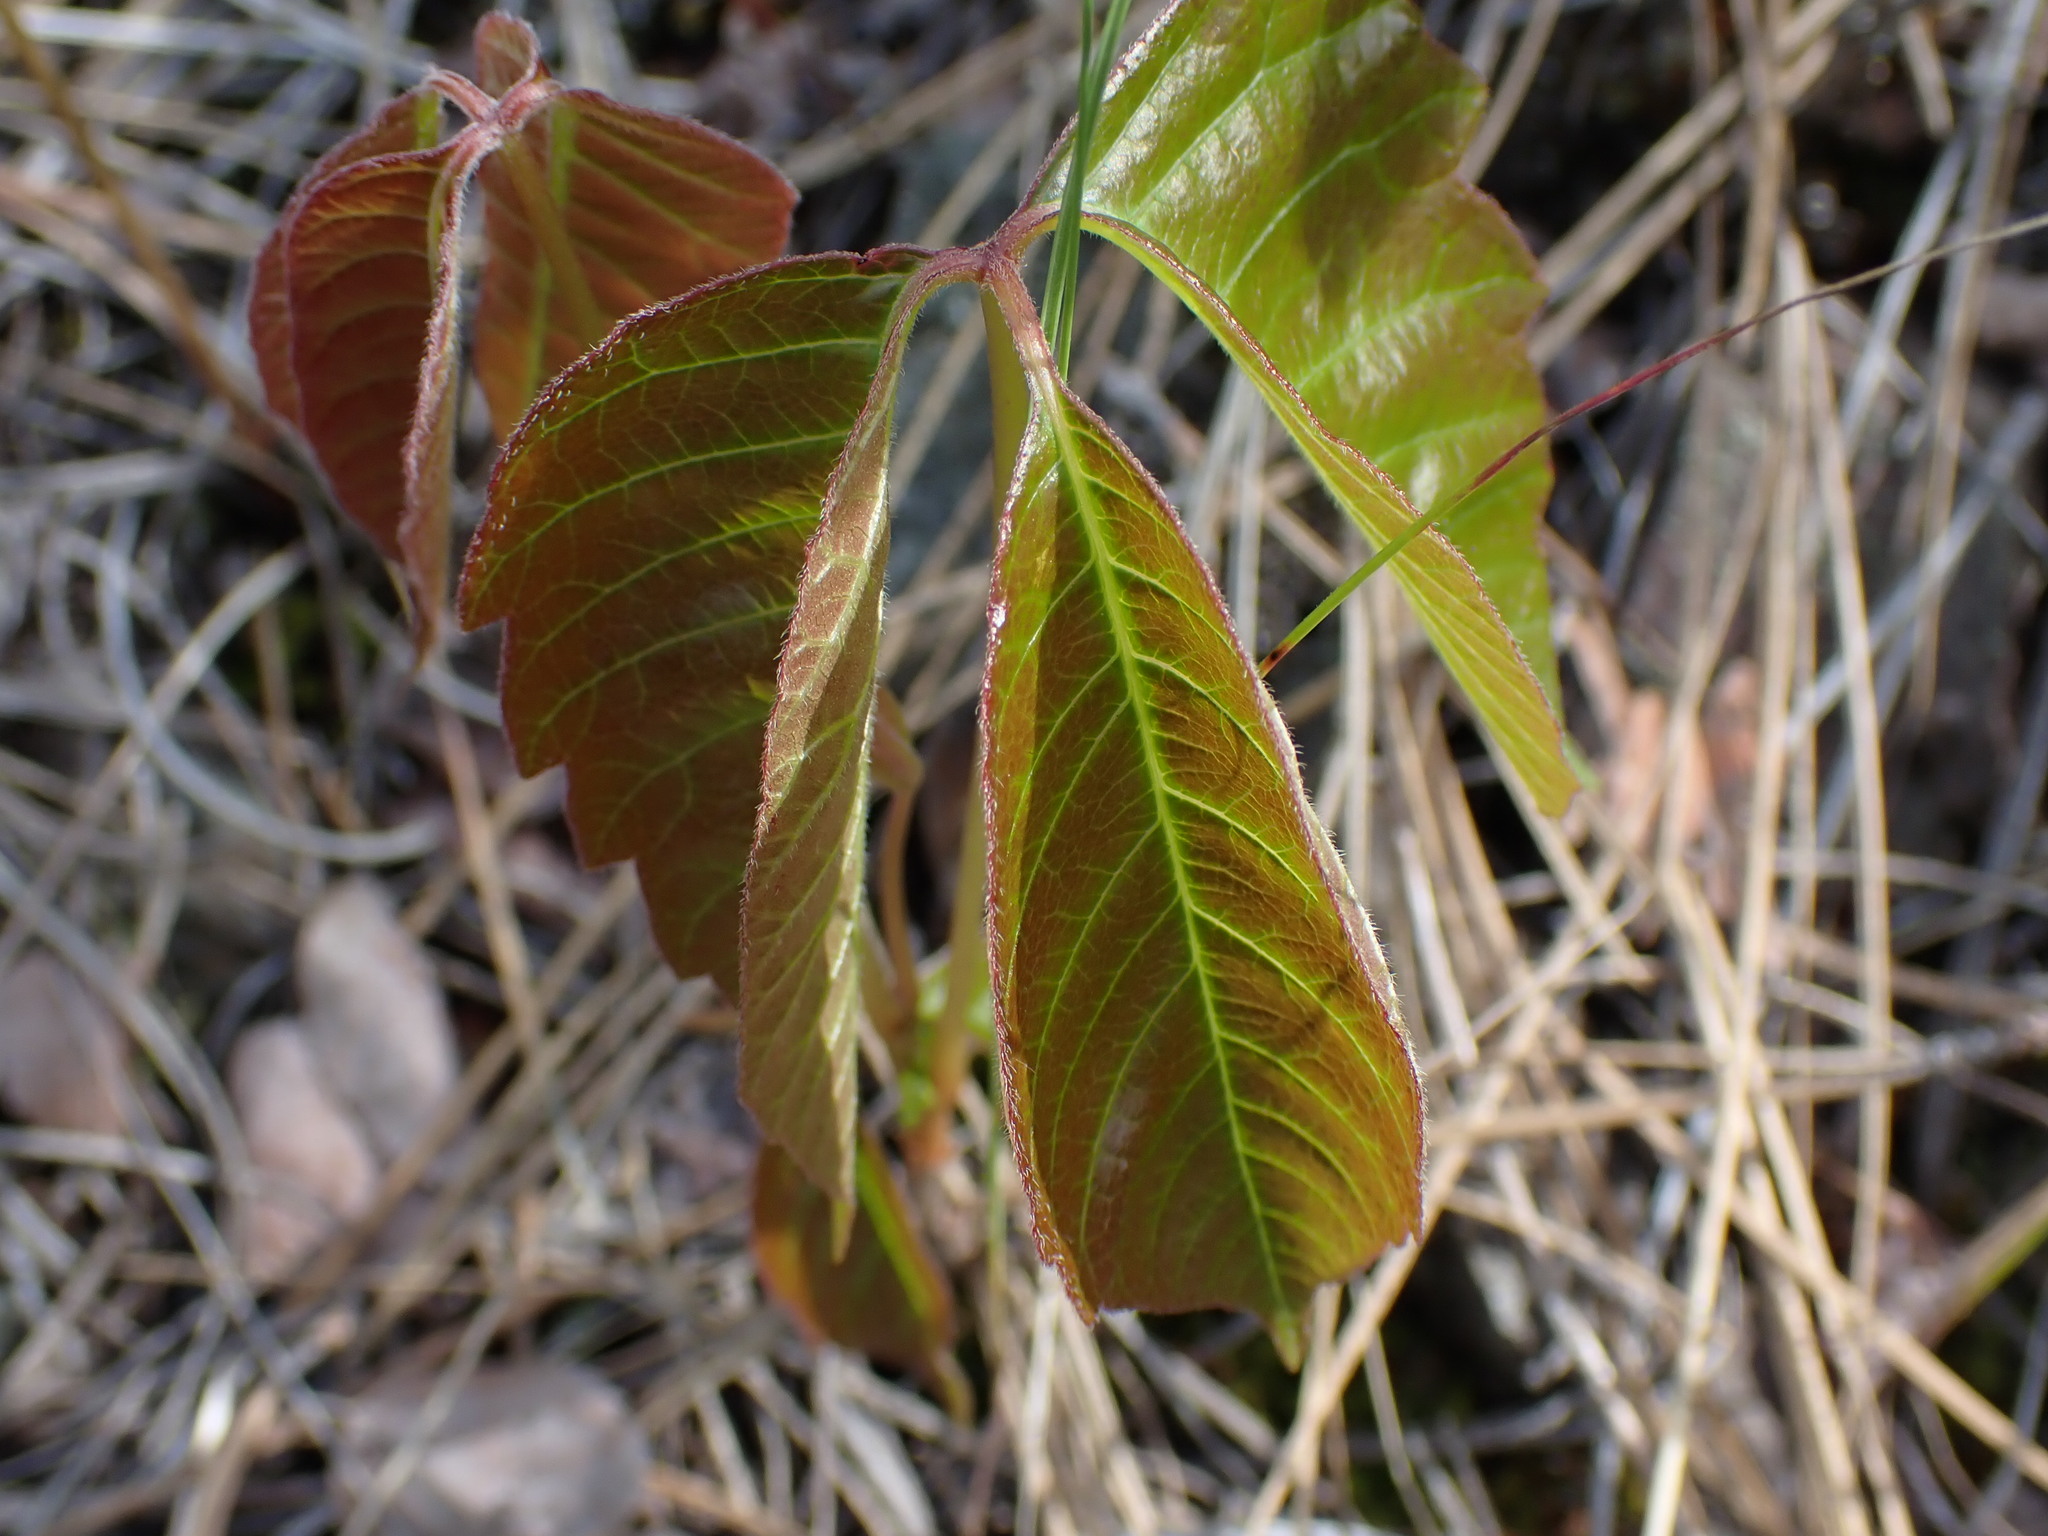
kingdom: Plantae
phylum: Tracheophyta
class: Magnoliopsida
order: Sapindales
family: Anacardiaceae
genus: Toxicodendron
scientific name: Toxicodendron rydbergii
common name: Rydberg's poison-ivy
